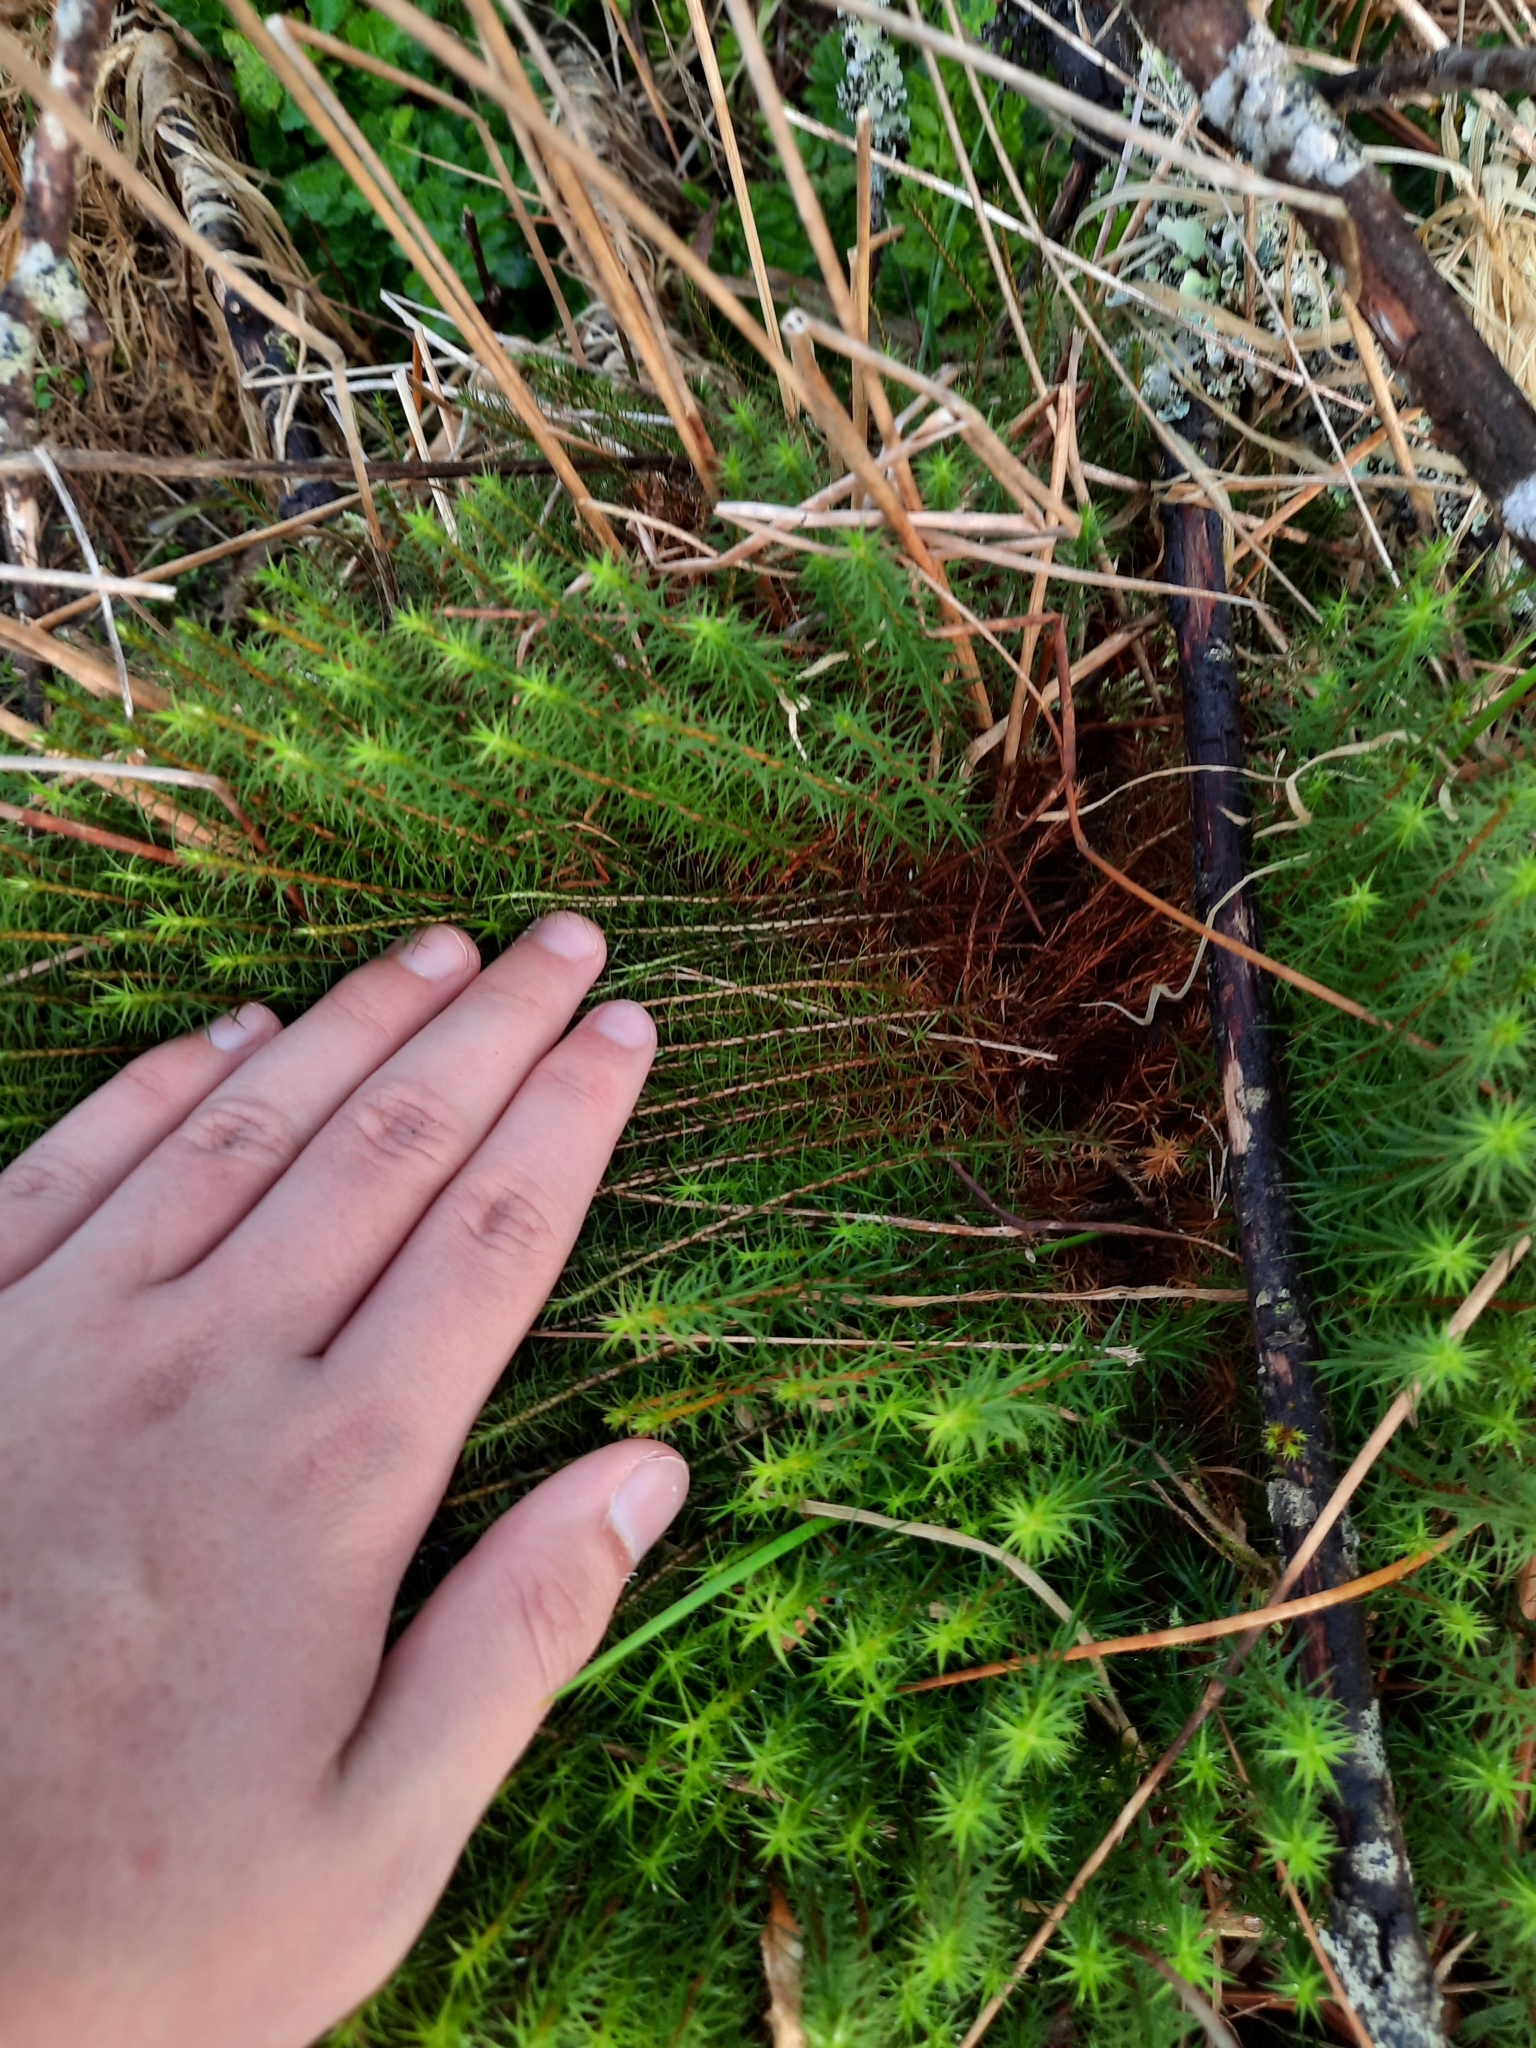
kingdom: Plantae
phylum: Bryophyta
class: Polytrichopsida
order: Polytrichales
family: Polytrichaceae
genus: Polytrichum
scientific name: Polytrichum commune
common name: Common haircap
